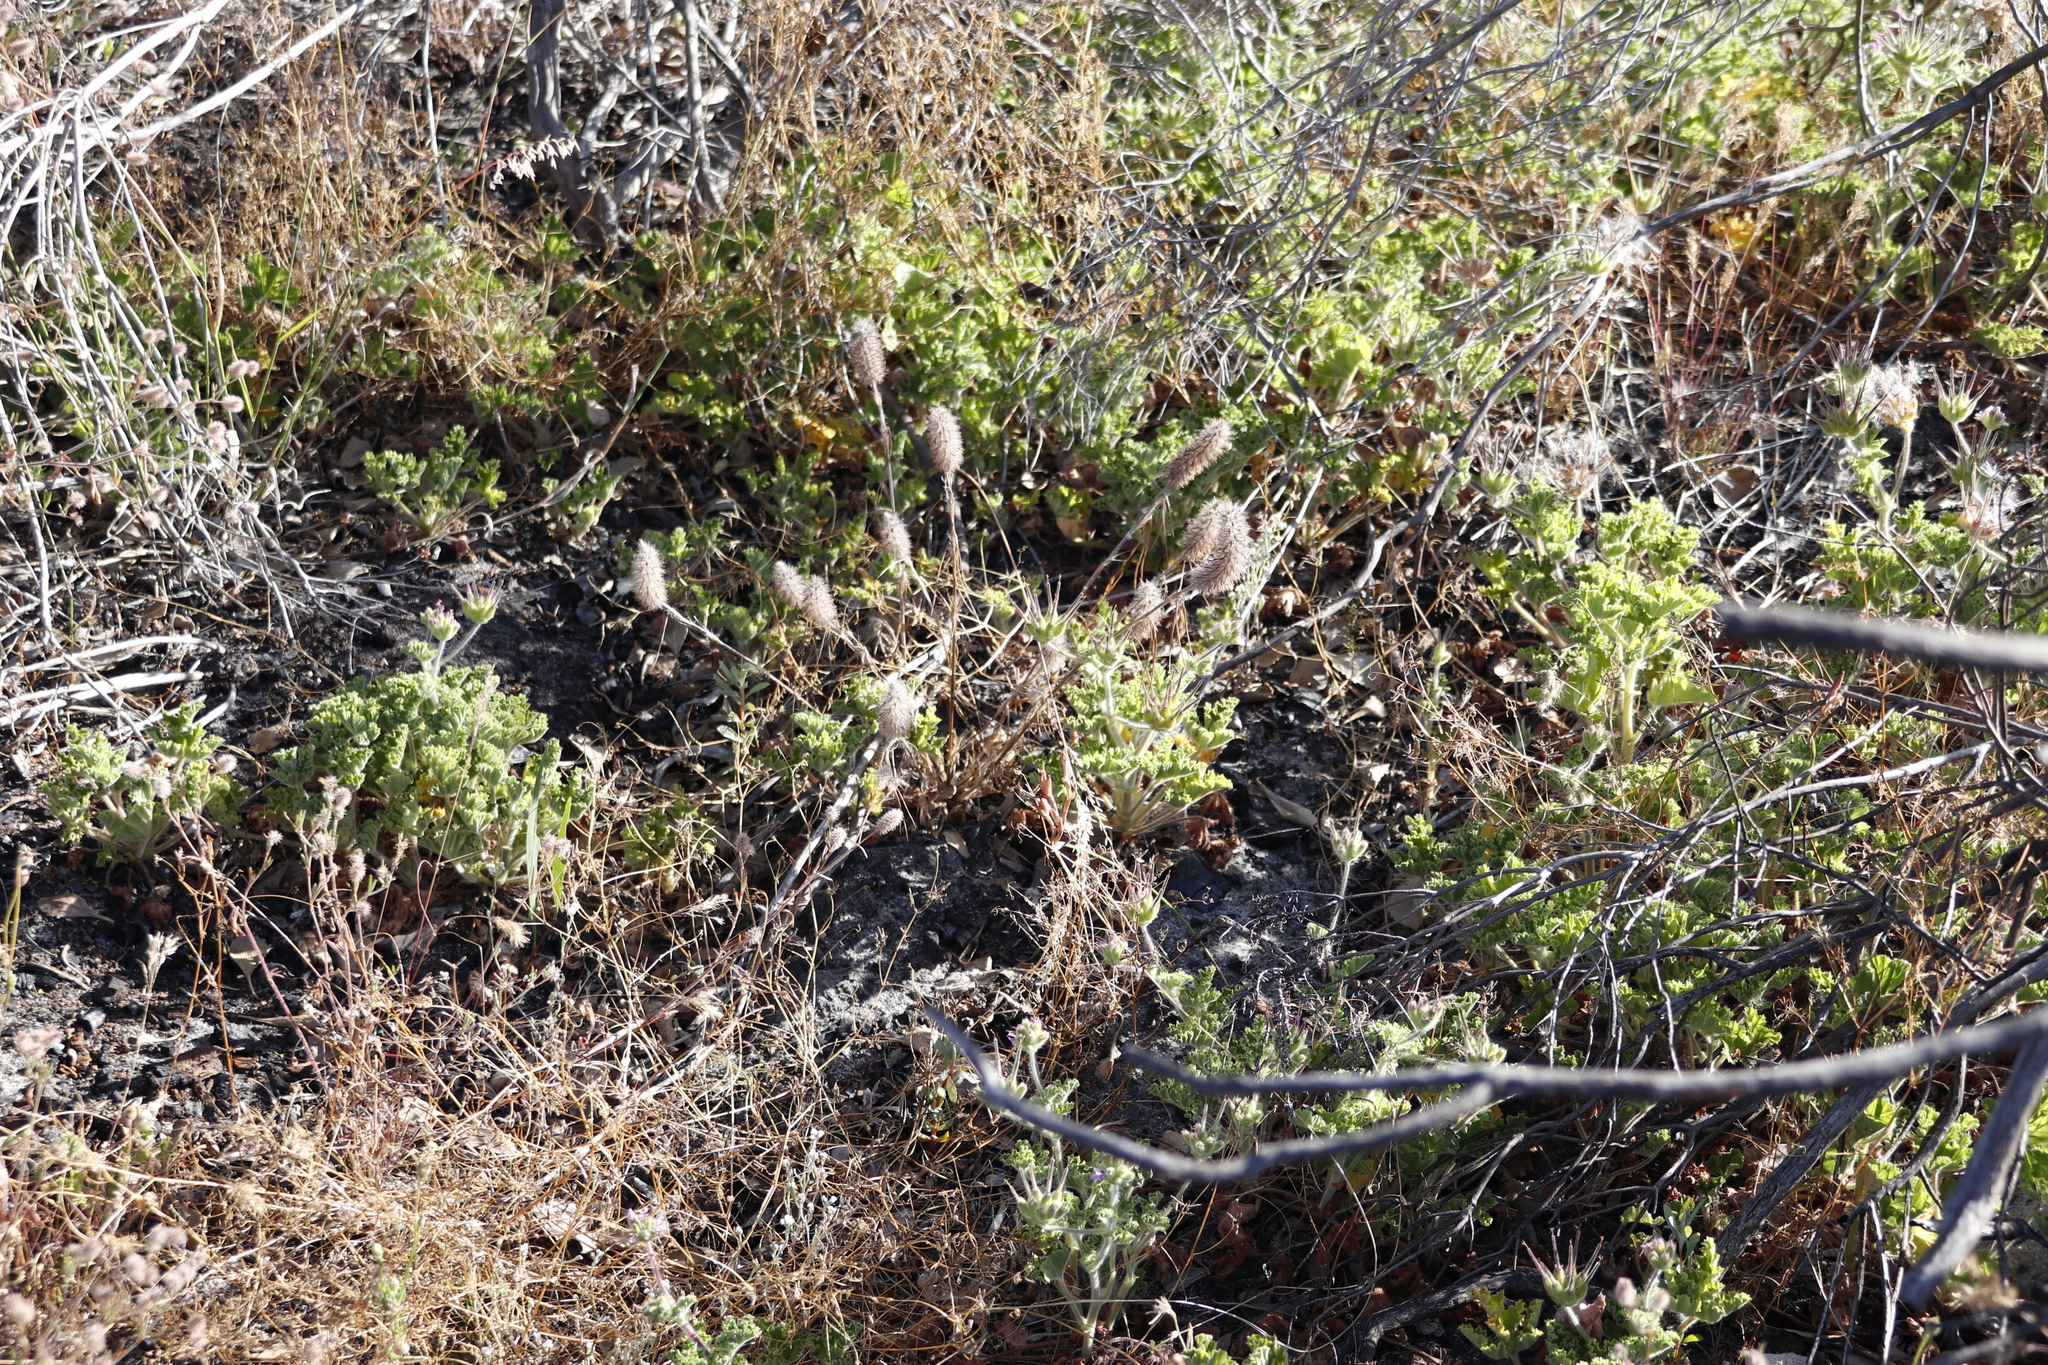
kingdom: Plantae
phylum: Tracheophyta
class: Magnoliopsida
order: Fabales
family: Fabaceae
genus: Trifolium
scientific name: Trifolium angustifolium
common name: Narrow clover
